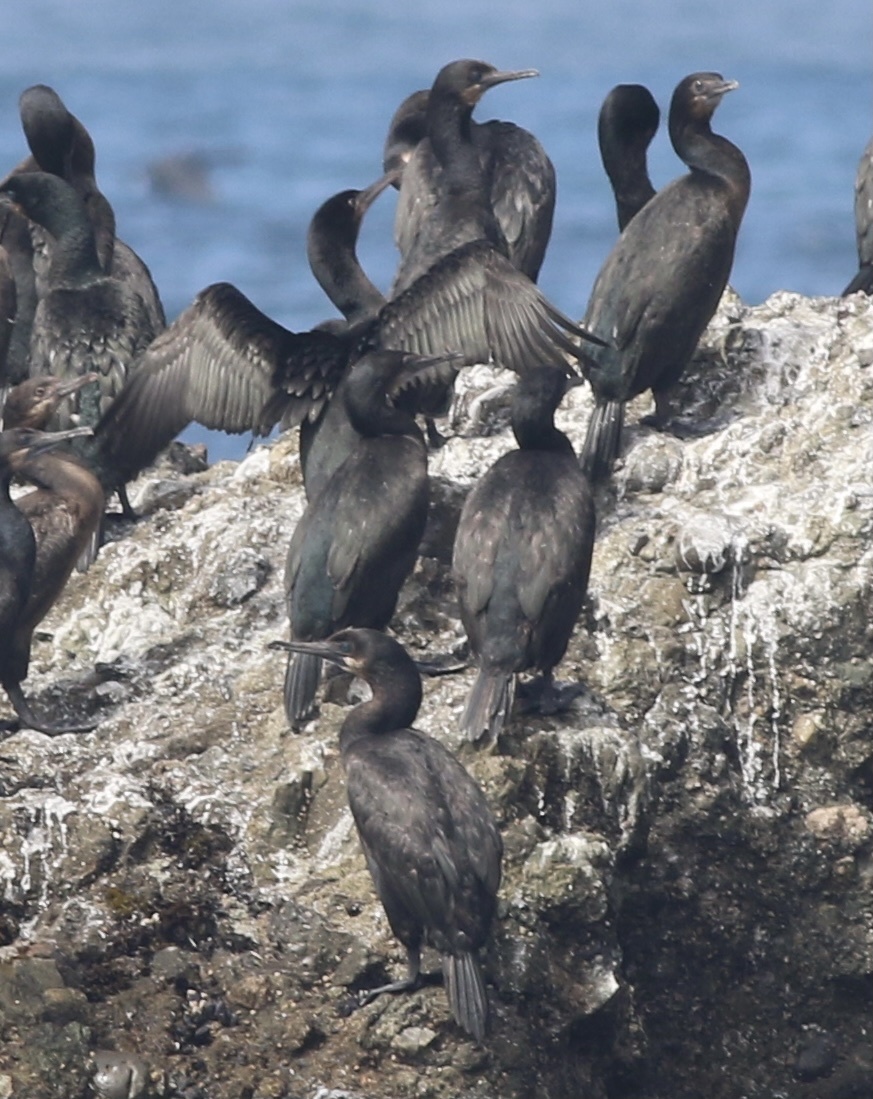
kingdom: Animalia
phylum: Chordata
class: Aves
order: Suliformes
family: Phalacrocoracidae
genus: Urile
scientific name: Urile penicillatus
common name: Brandt's cormorant
